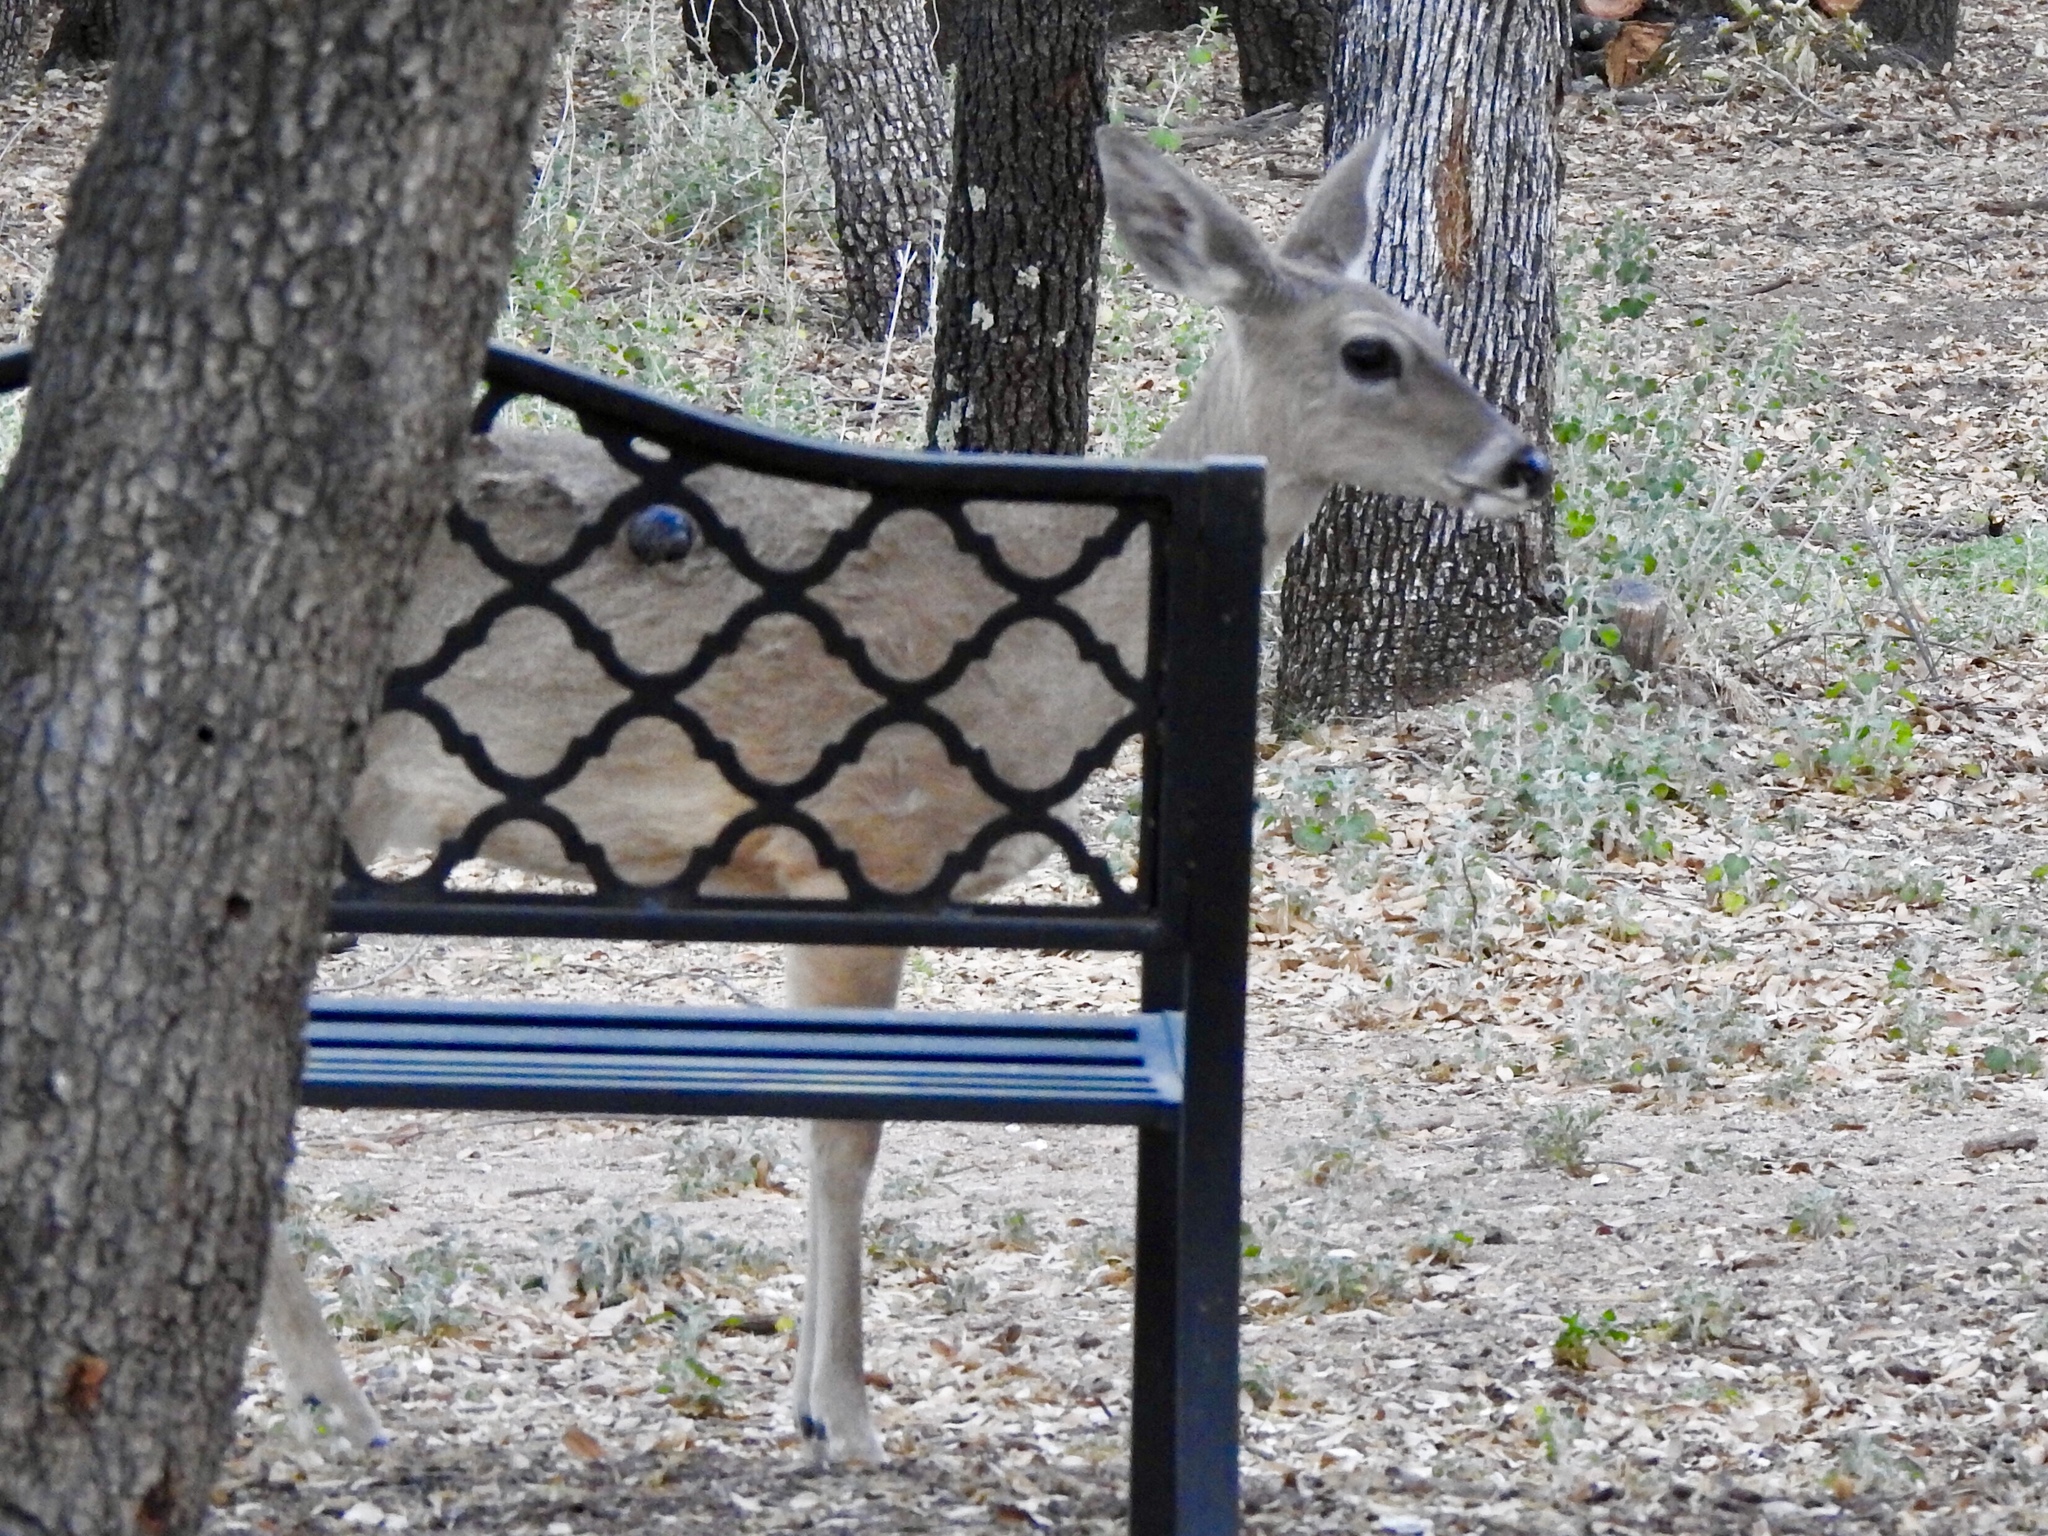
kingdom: Animalia
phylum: Chordata
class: Mammalia
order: Artiodactyla
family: Cervidae
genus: Odocoileus
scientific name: Odocoileus virginianus
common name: White-tailed deer
